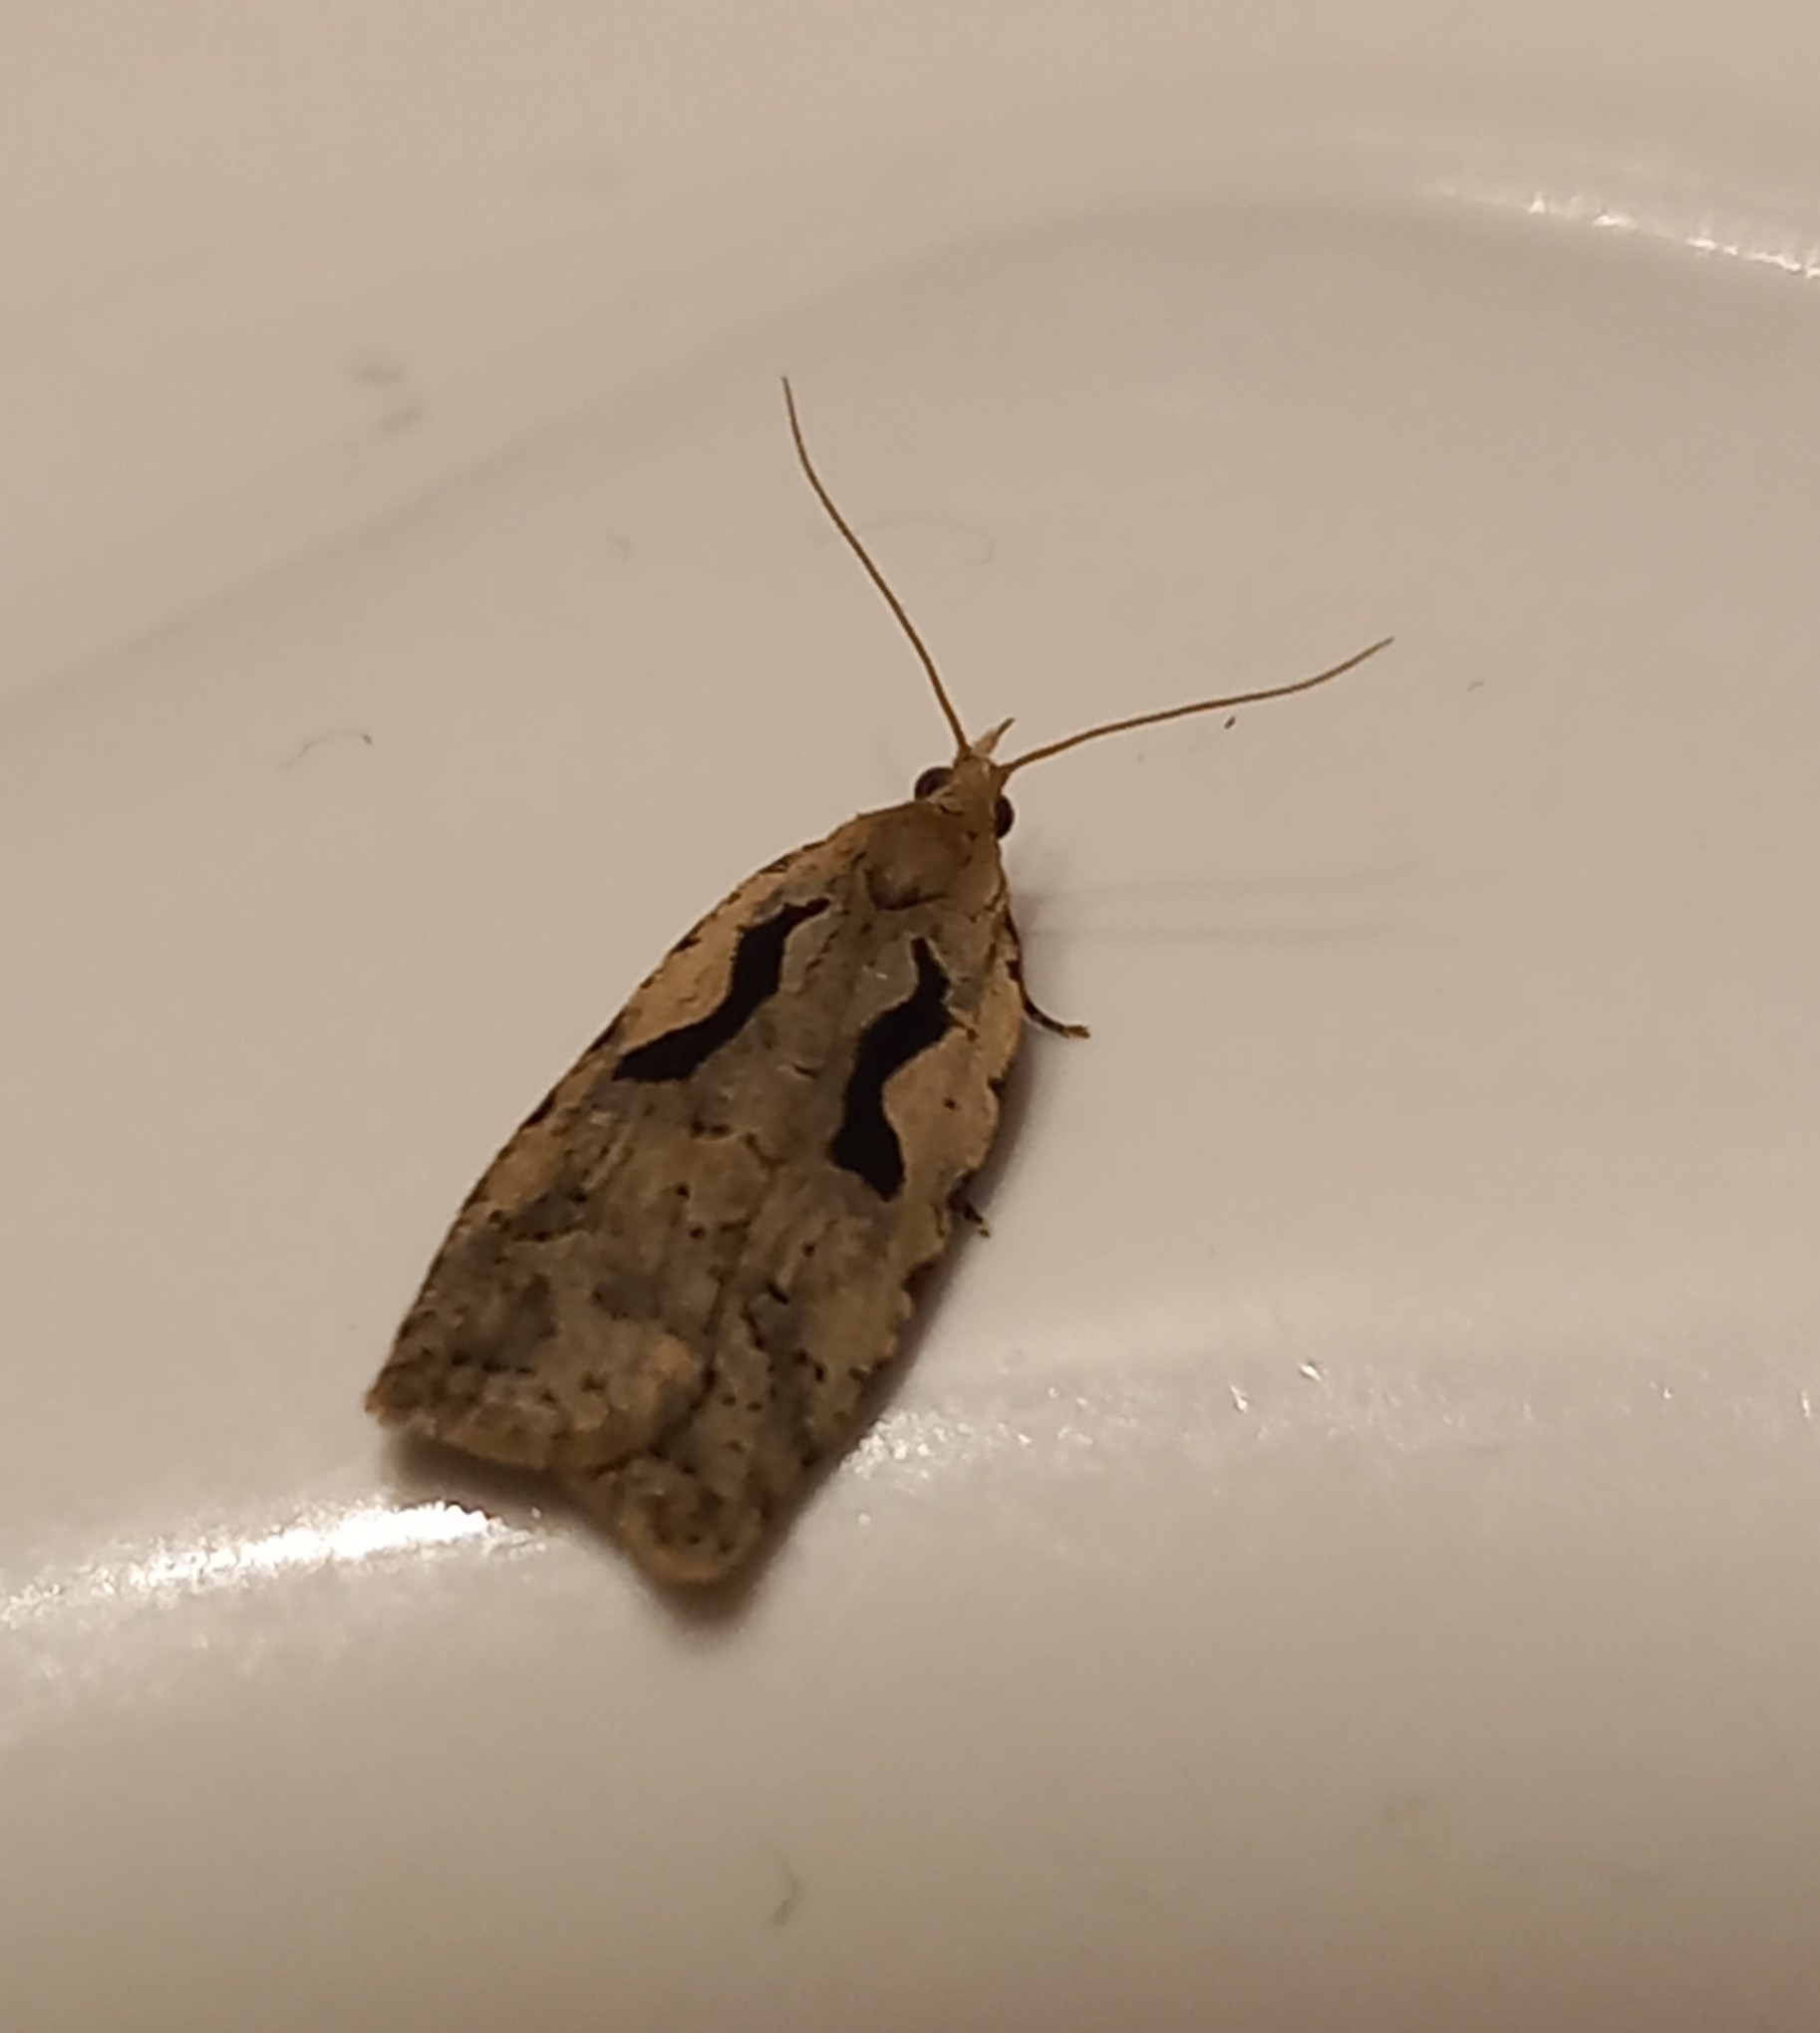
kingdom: Animalia
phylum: Arthropoda
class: Insecta
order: Lepidoptera
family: Tortricidae
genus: Cnephasia
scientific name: Cnephasia jactatana
